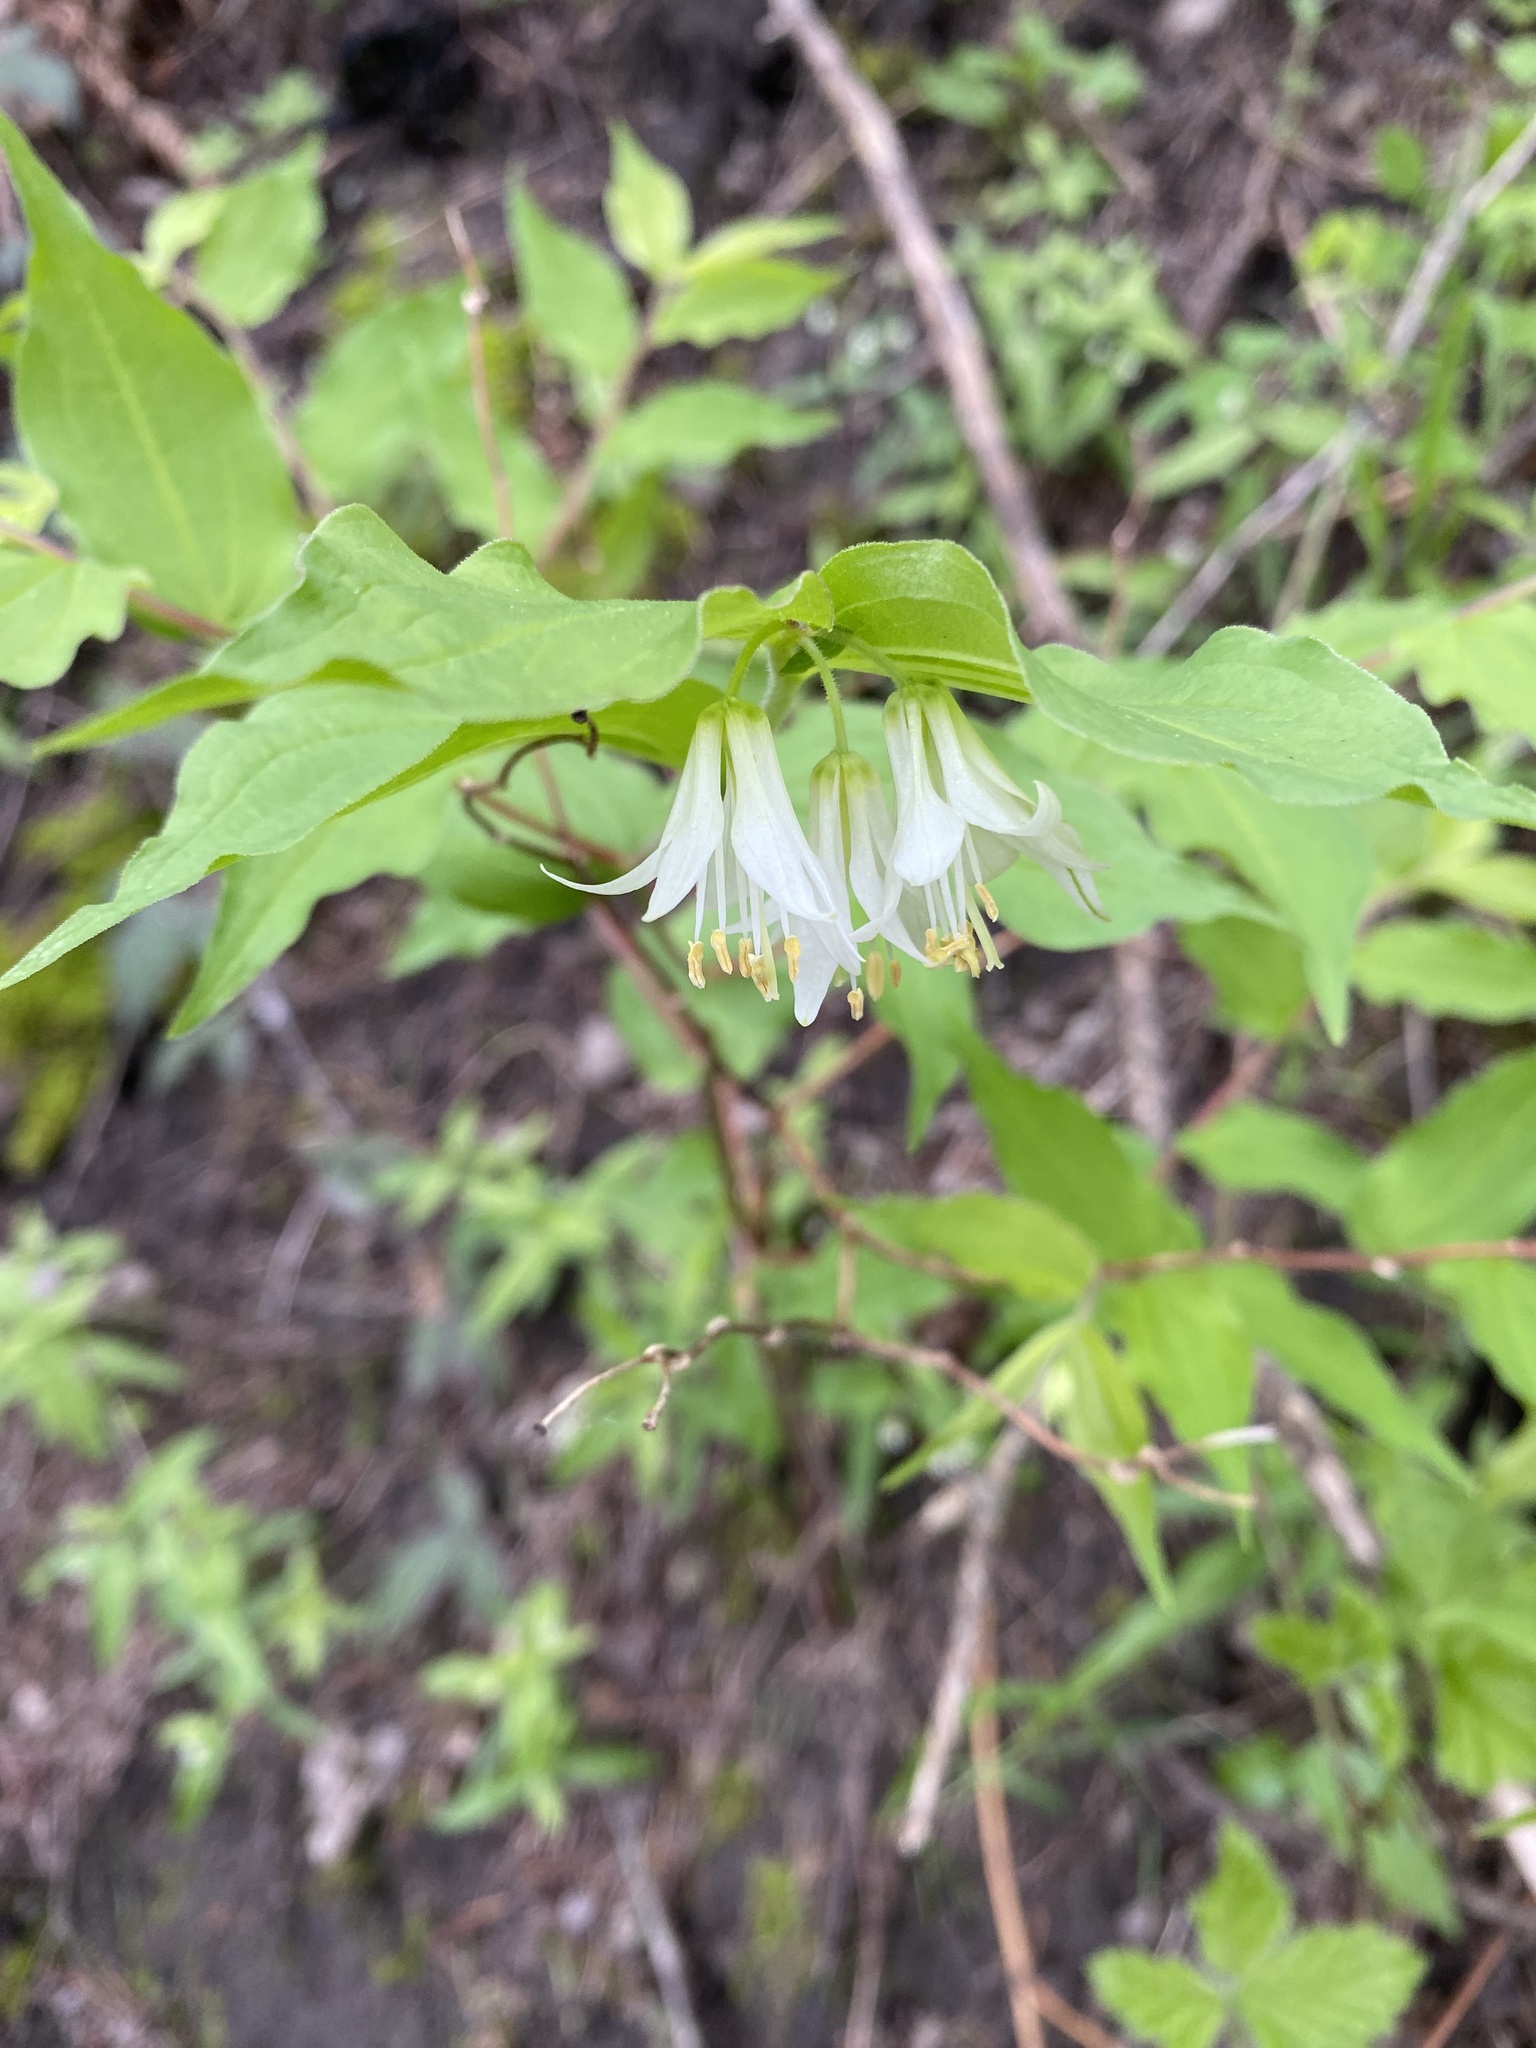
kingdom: Plantae
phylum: Tracheophyta
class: Liliopsida
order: Liliales
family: Liliaceae
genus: Prosartes
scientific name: Prosartes hookeri
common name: Fairy-bells
